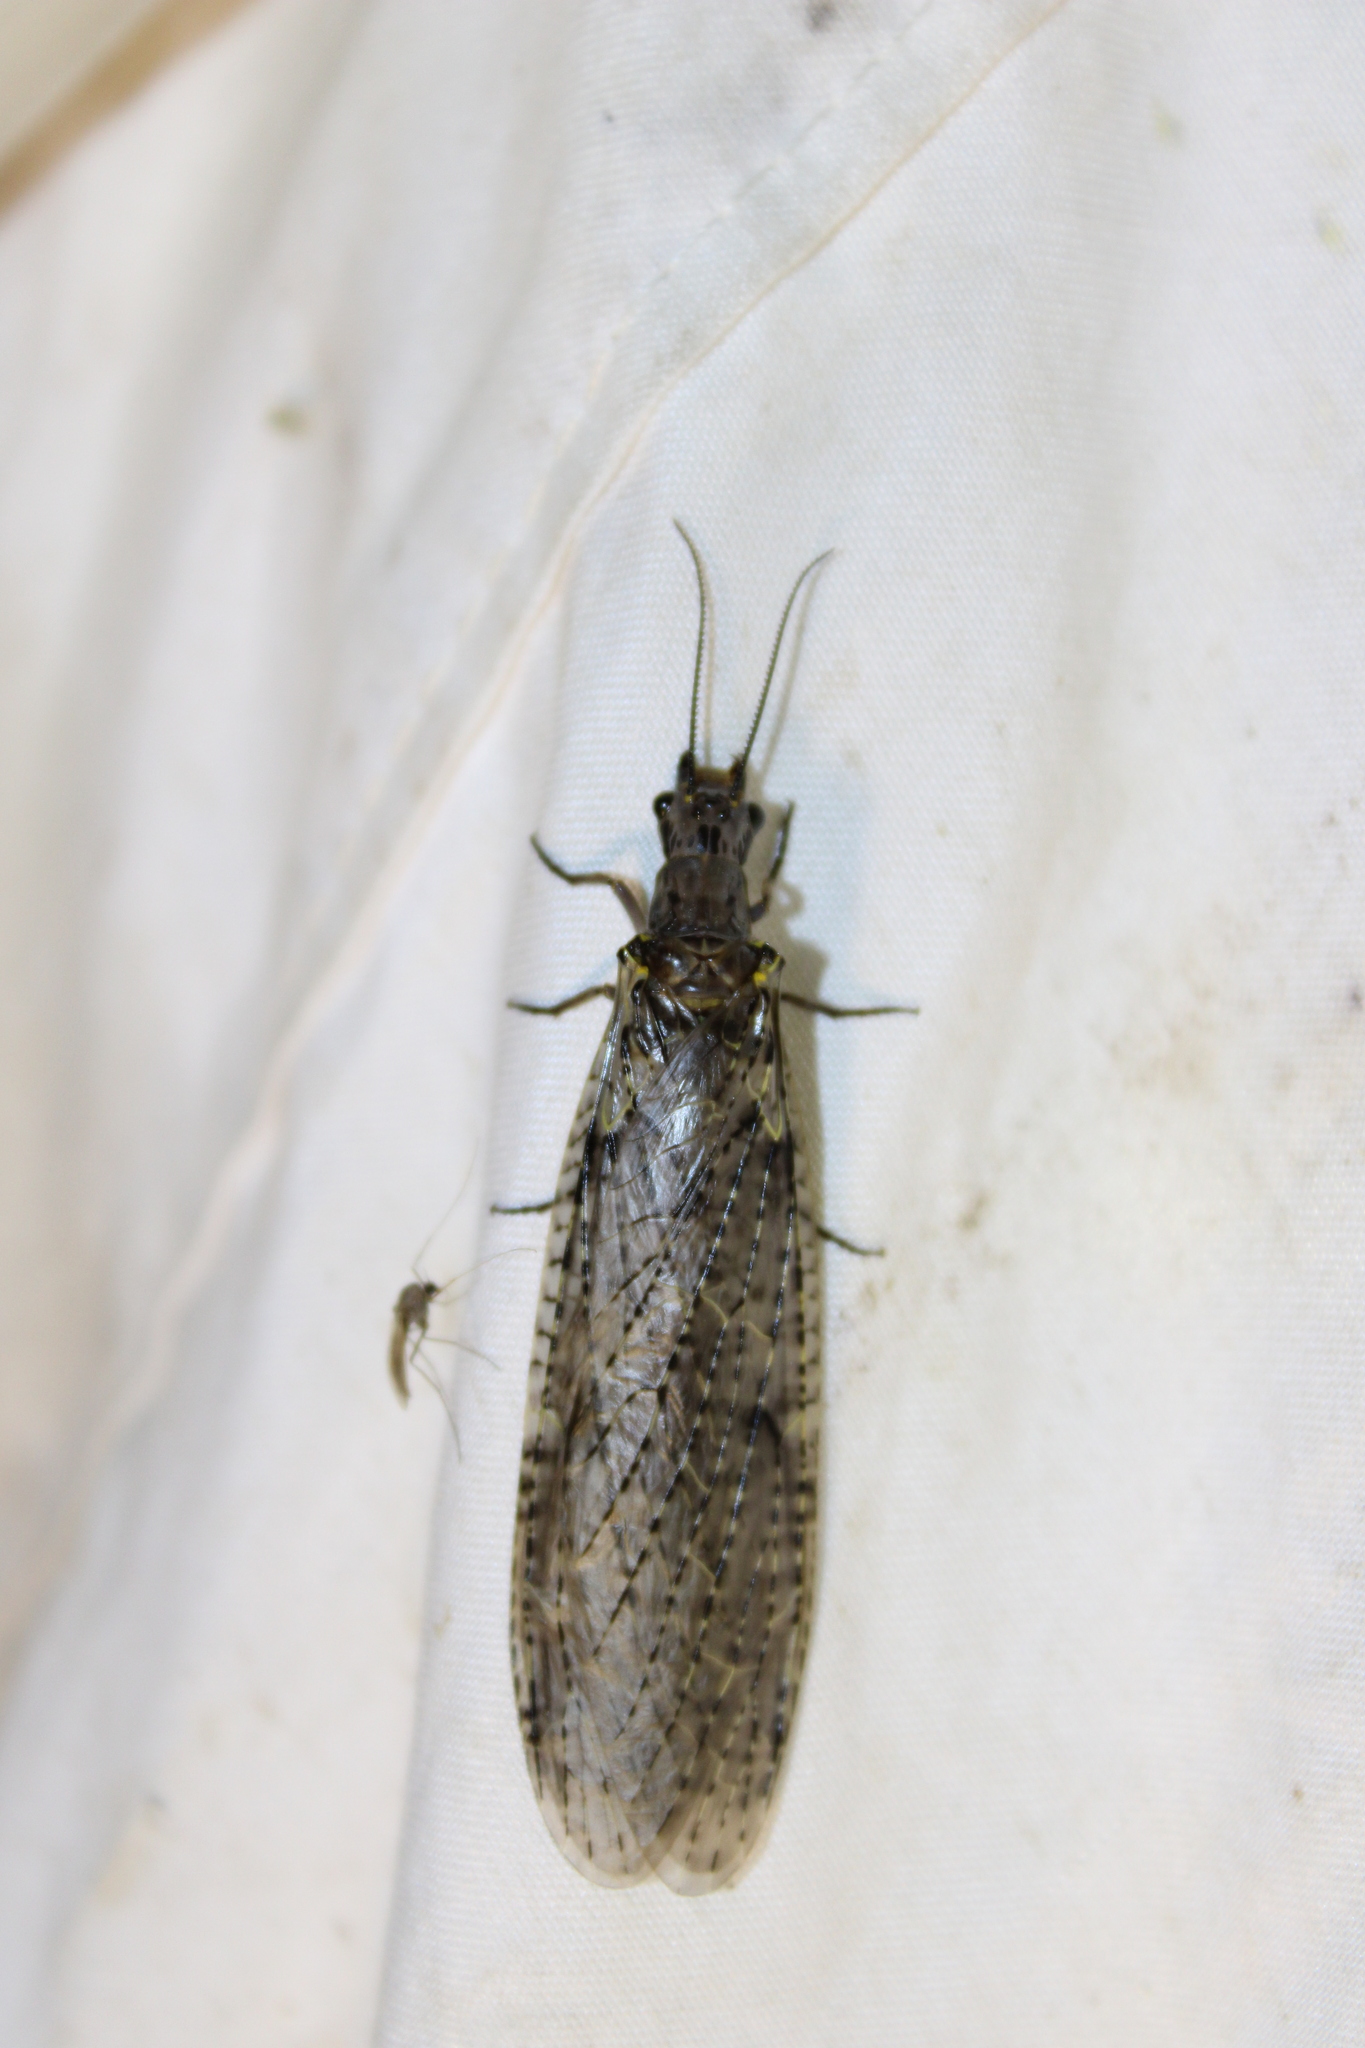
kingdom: Animalia
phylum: Arthropoda
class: Insecta
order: Megaloptera
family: Corydalidae
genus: Chauliodes
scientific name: Chauliodes rastricornis
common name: Spring fishfly
